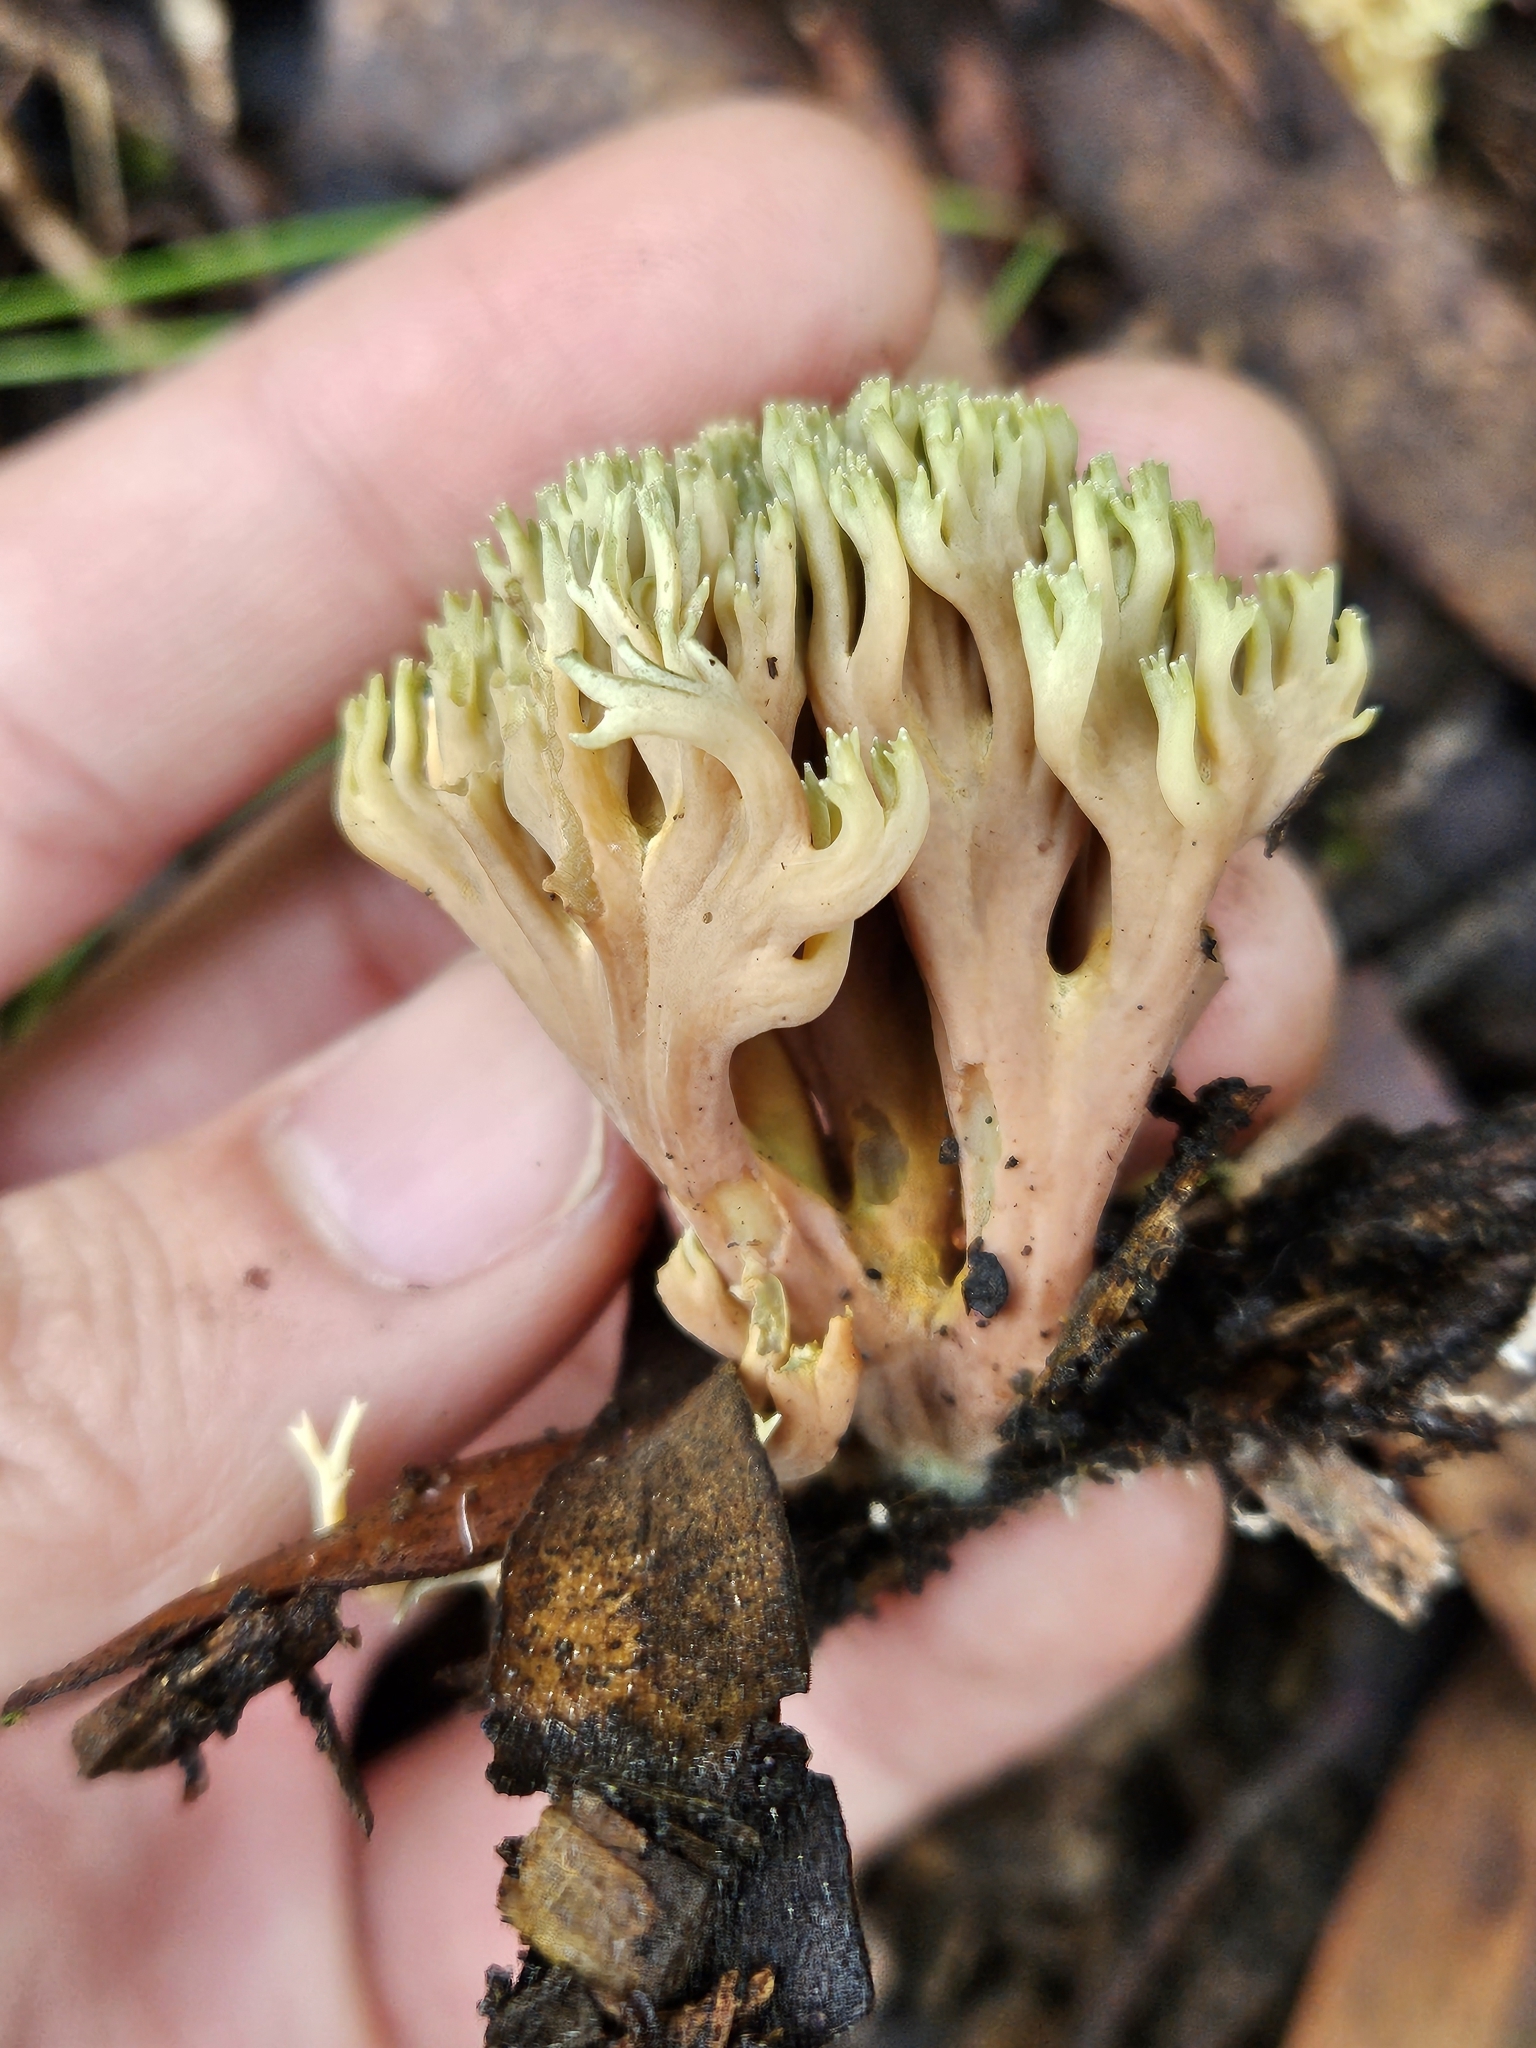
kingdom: Fungi
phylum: Basidiomycota
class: Agaricomycetes
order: Gomphales
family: Gomphaceae
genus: Ramaria
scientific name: Ramaria apiculata
